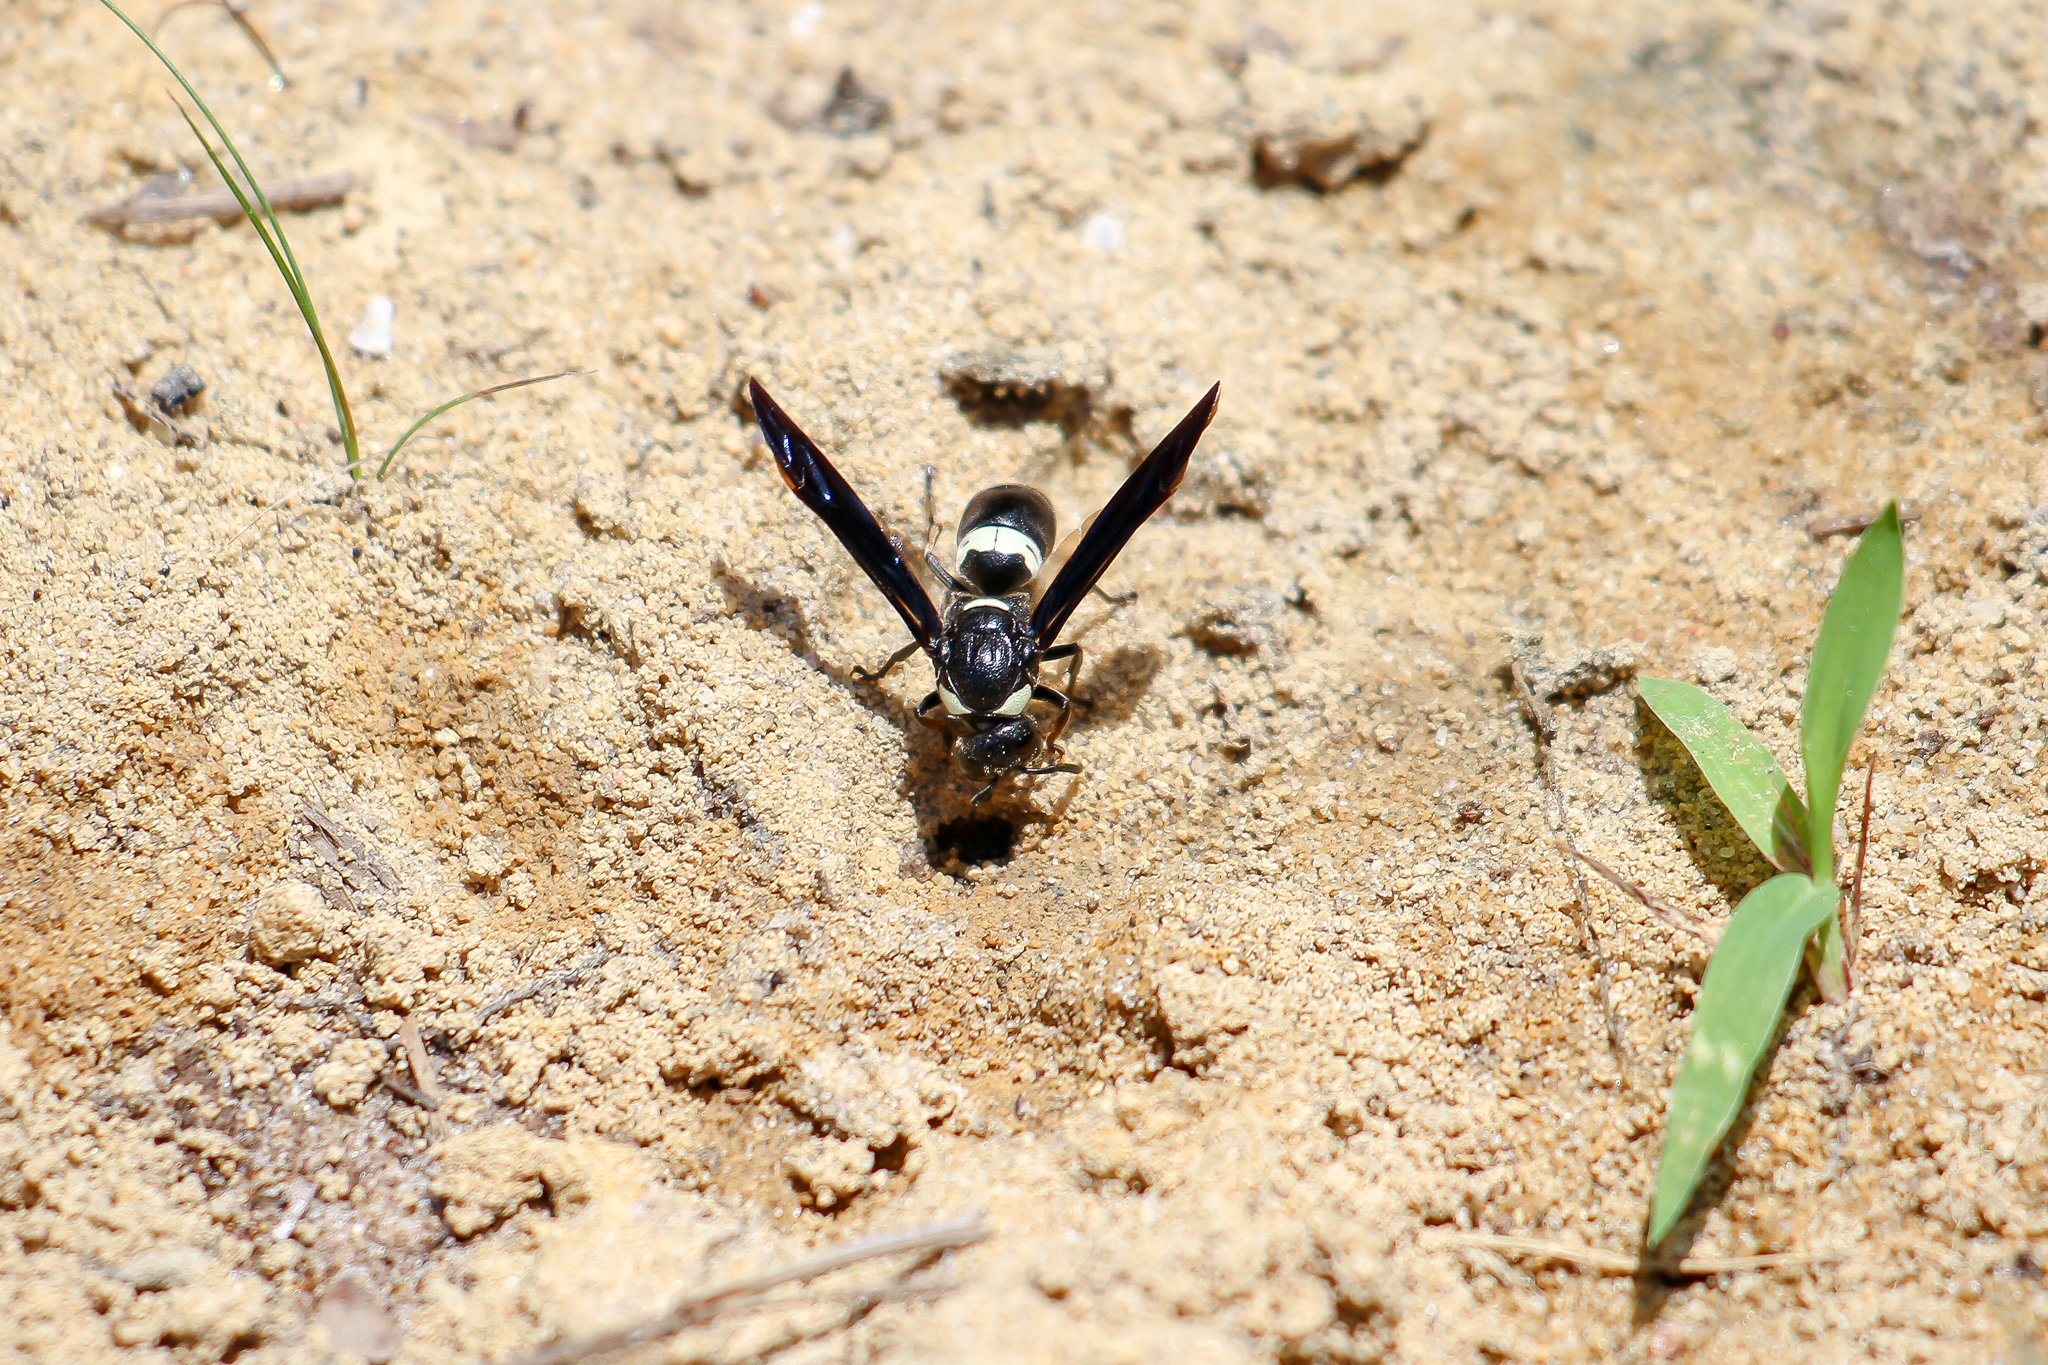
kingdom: Animalia
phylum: Arthropoda
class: Insecta
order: Hymenoptera
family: Eumenidae
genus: Monobia
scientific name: Monobia quadridens
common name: Four-toothed mason wasp
